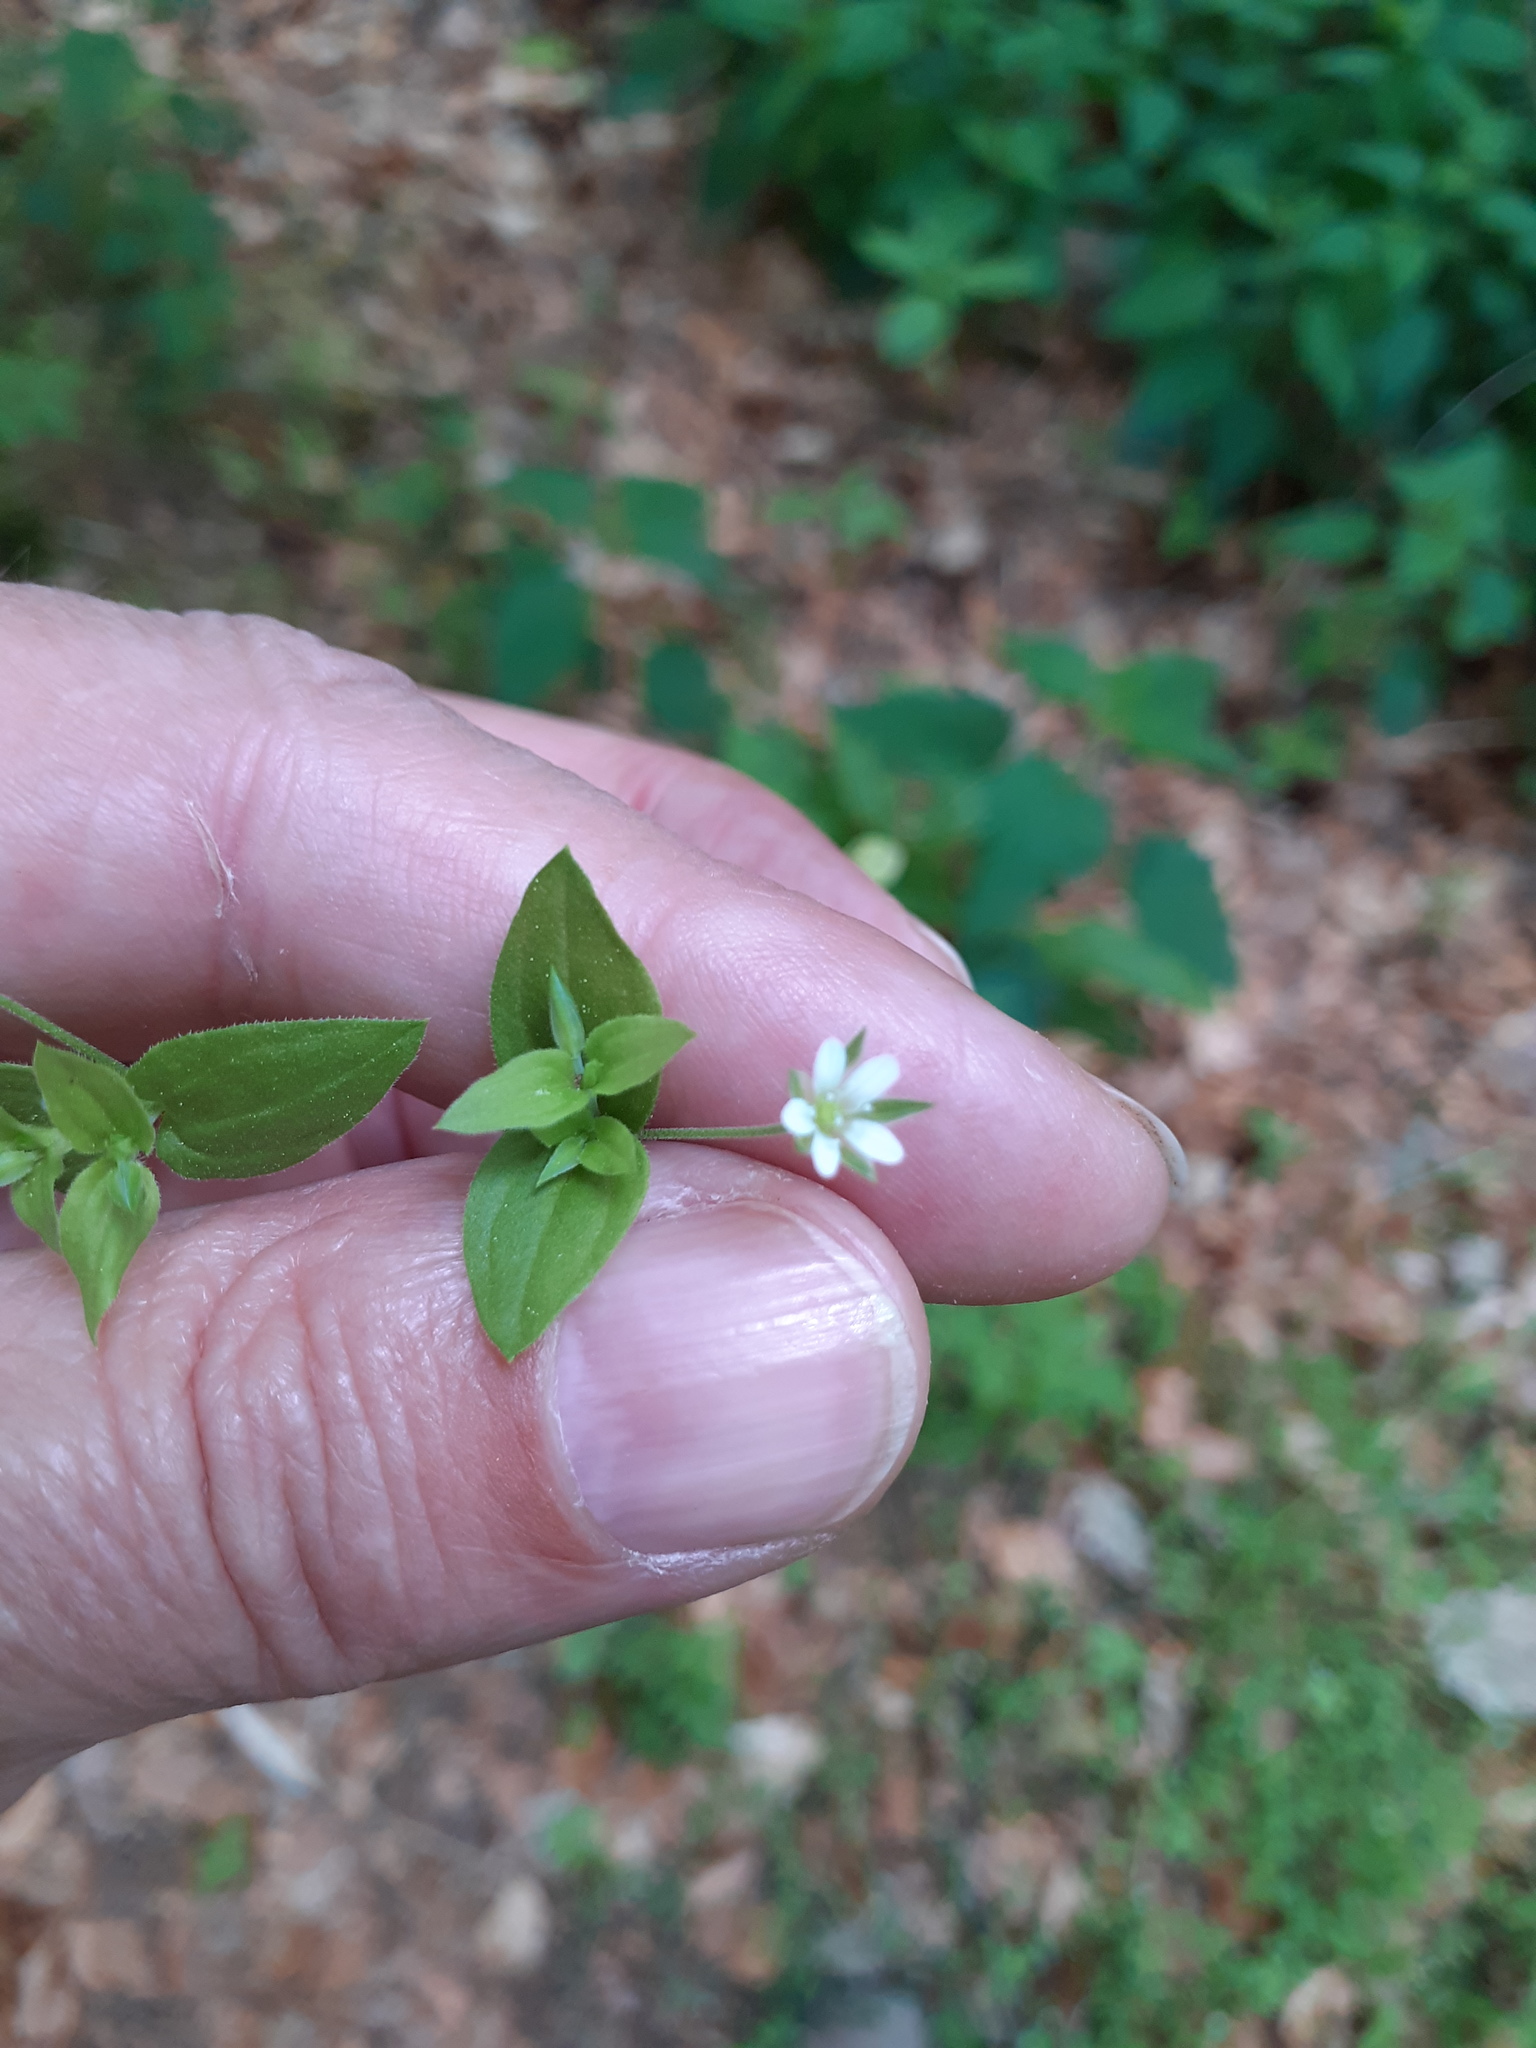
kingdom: Plantae
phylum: Tracheophyta
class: Magnoliopsida
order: Caryophyllales
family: Caryophyllaceae
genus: Moehringia
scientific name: Moehringia trinervia
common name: Three-nerved sandwort
